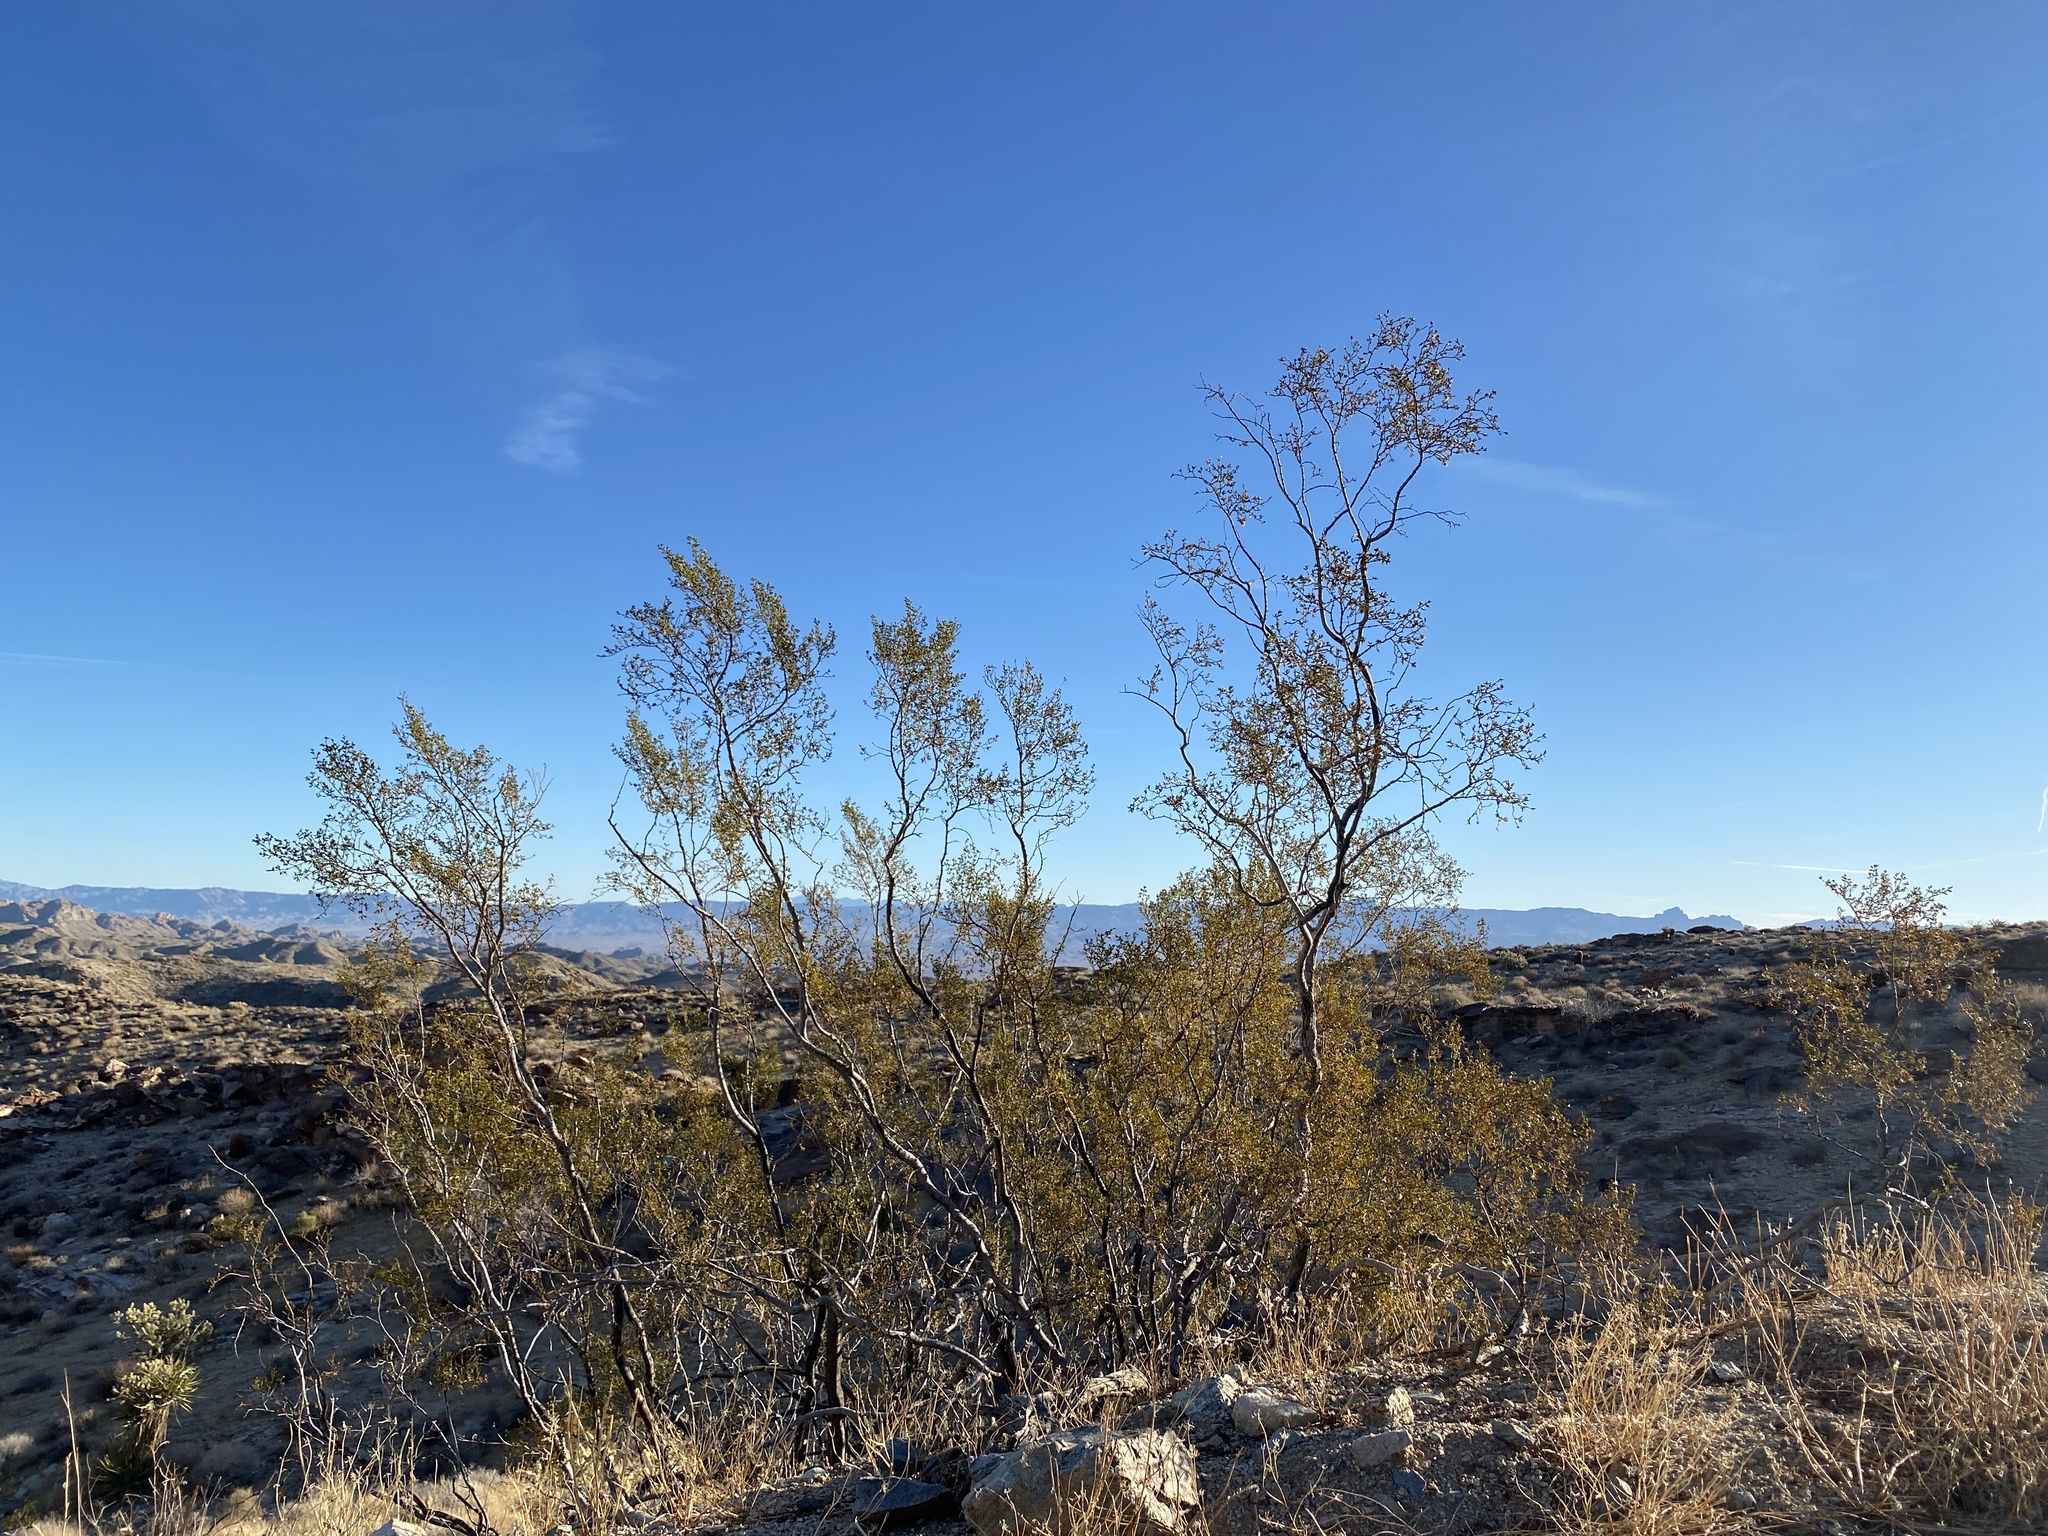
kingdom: Plantae
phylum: Tracheophyta
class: Magnoliopsida
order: Zygophyllales
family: Zygophyllaceae
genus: Larrea
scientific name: Larrea tridentata
